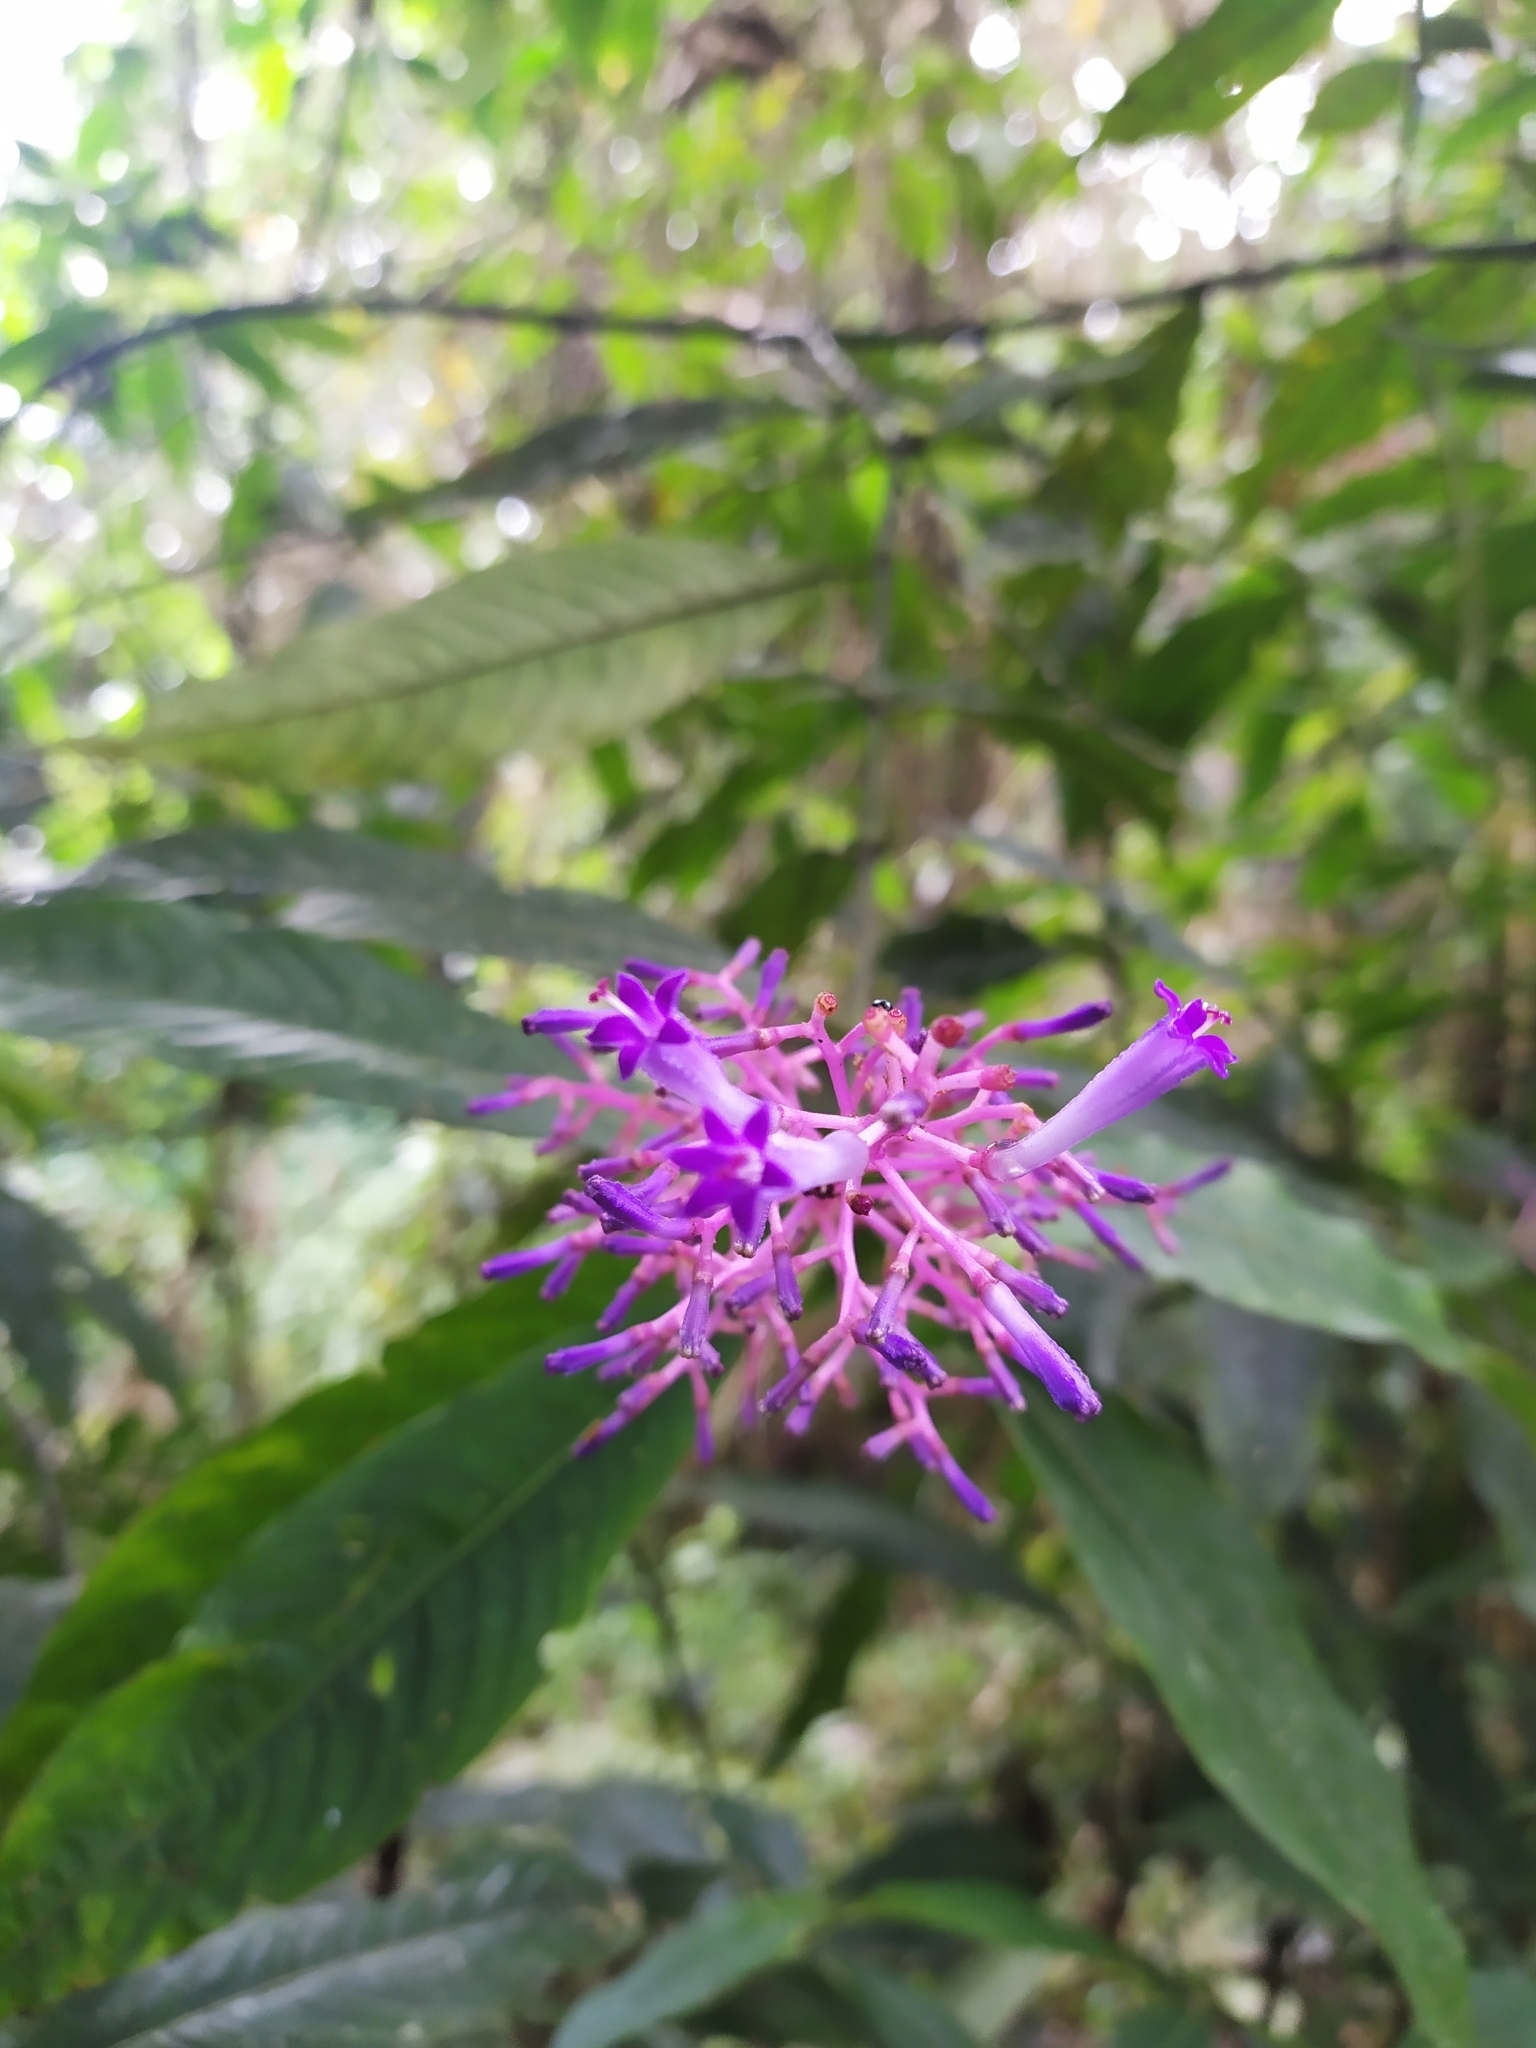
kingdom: Plantae
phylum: Tracheophyta
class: Magnoliopsida
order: Gentianales
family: Rubiaceae
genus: Palicourea
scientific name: Palicourea angustifolia
